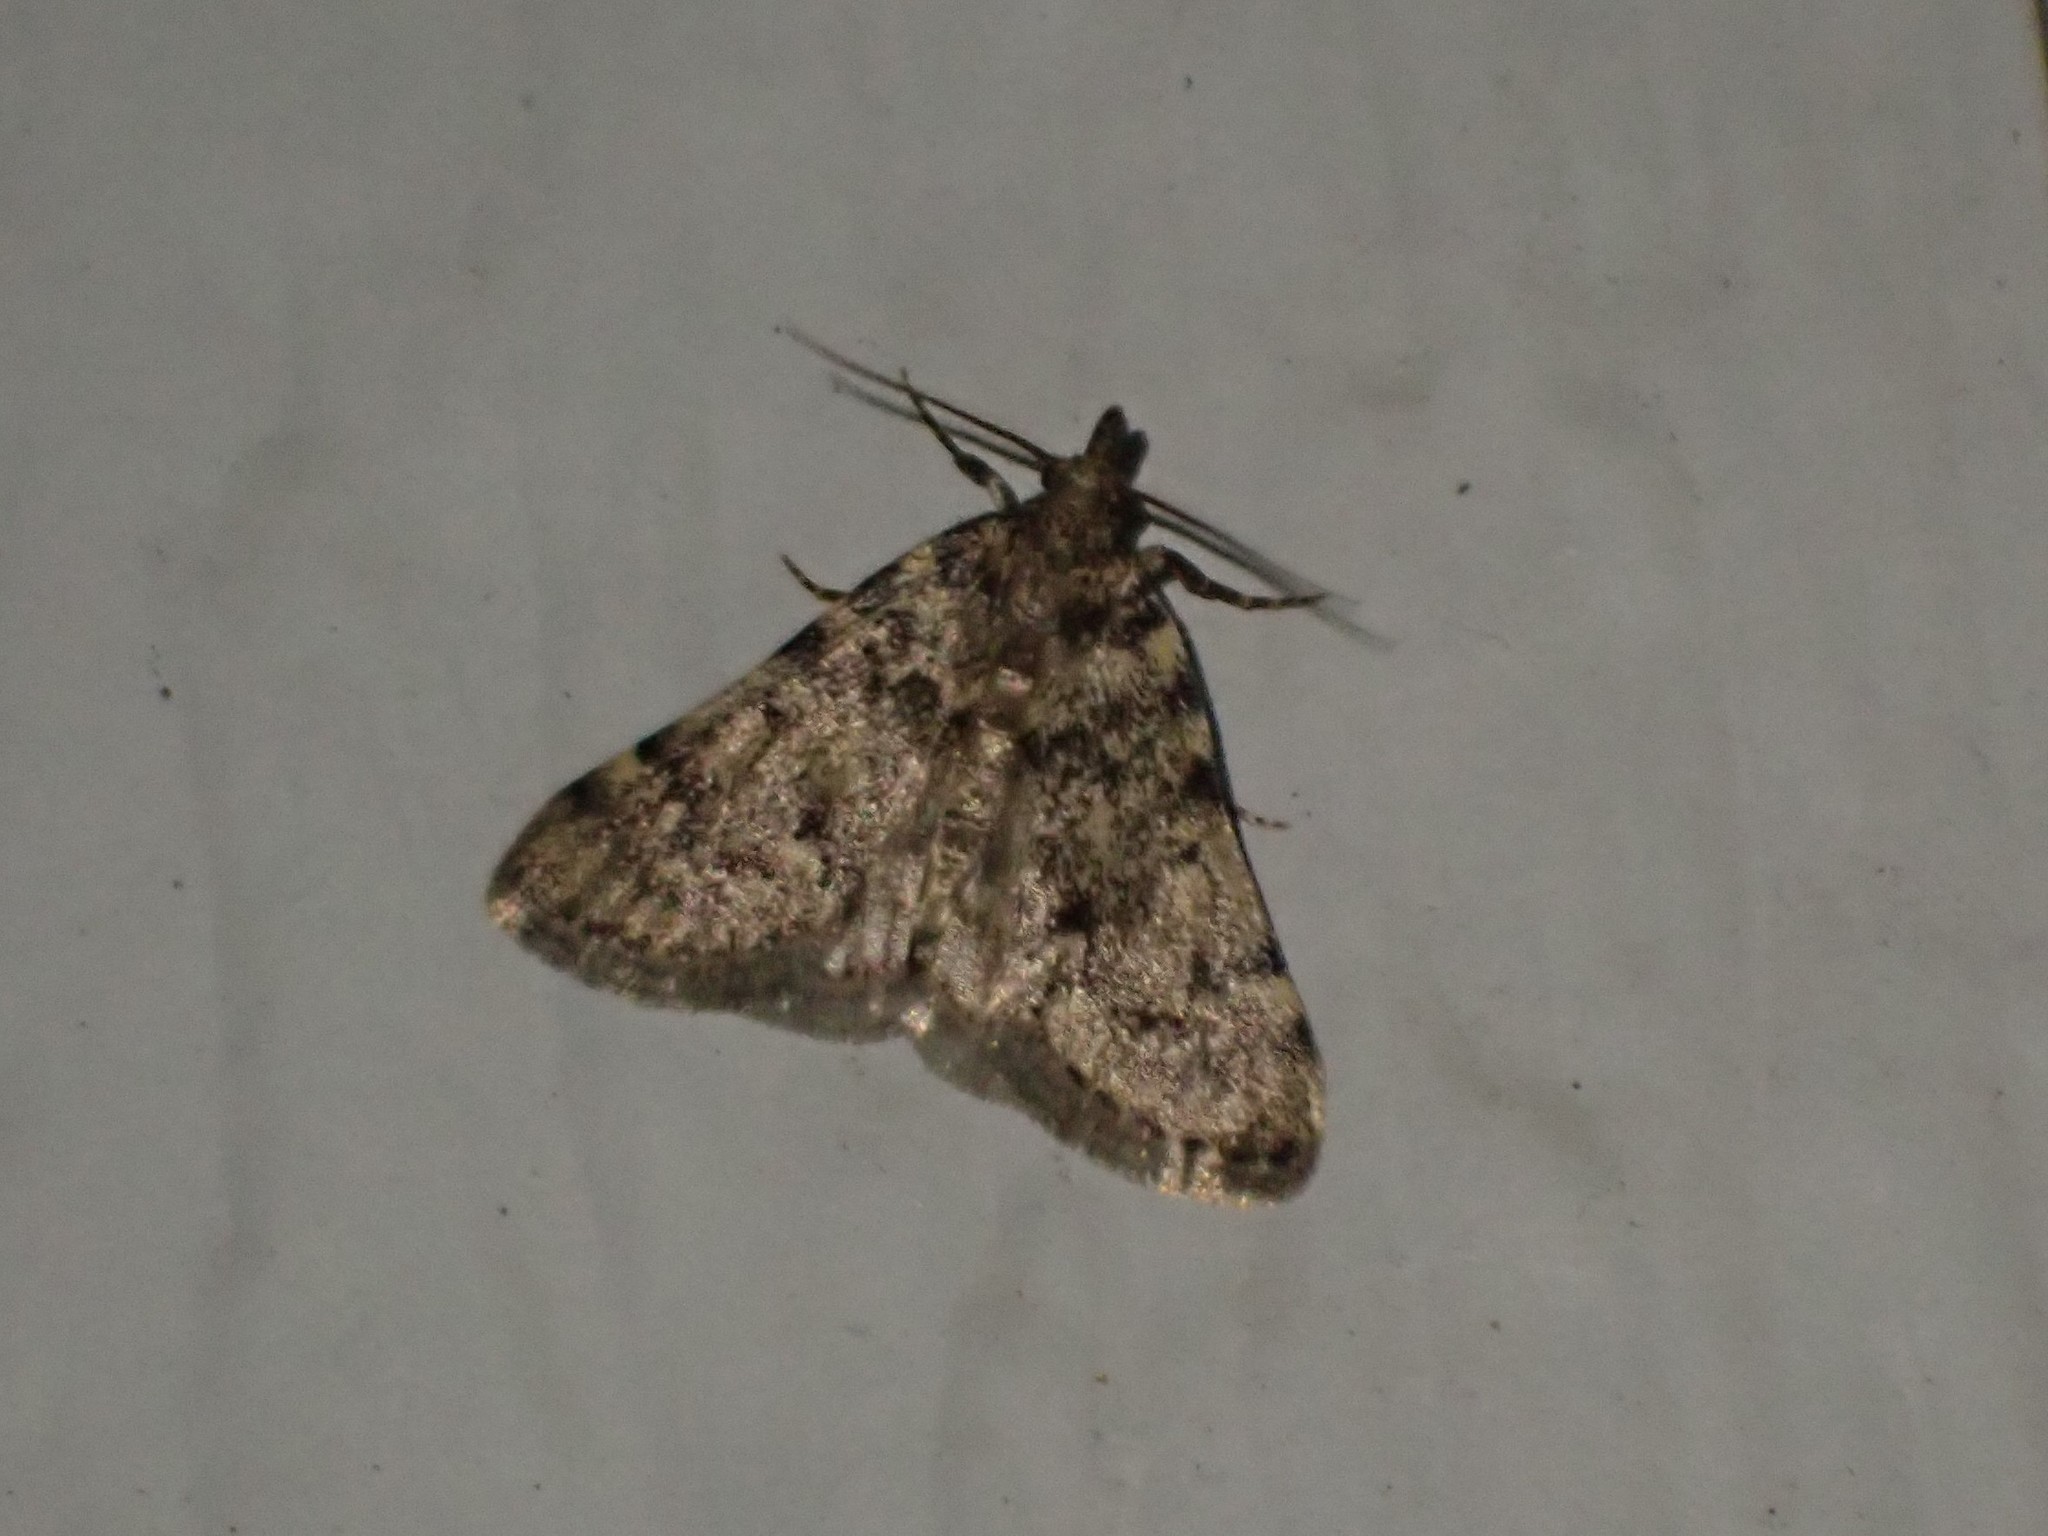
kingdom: Animalia
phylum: Arthropoda
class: Insecta
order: Lepidoptera
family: Pyralidae
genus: Aglossa
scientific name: Aglossa pinguinalis
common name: Large tabby
